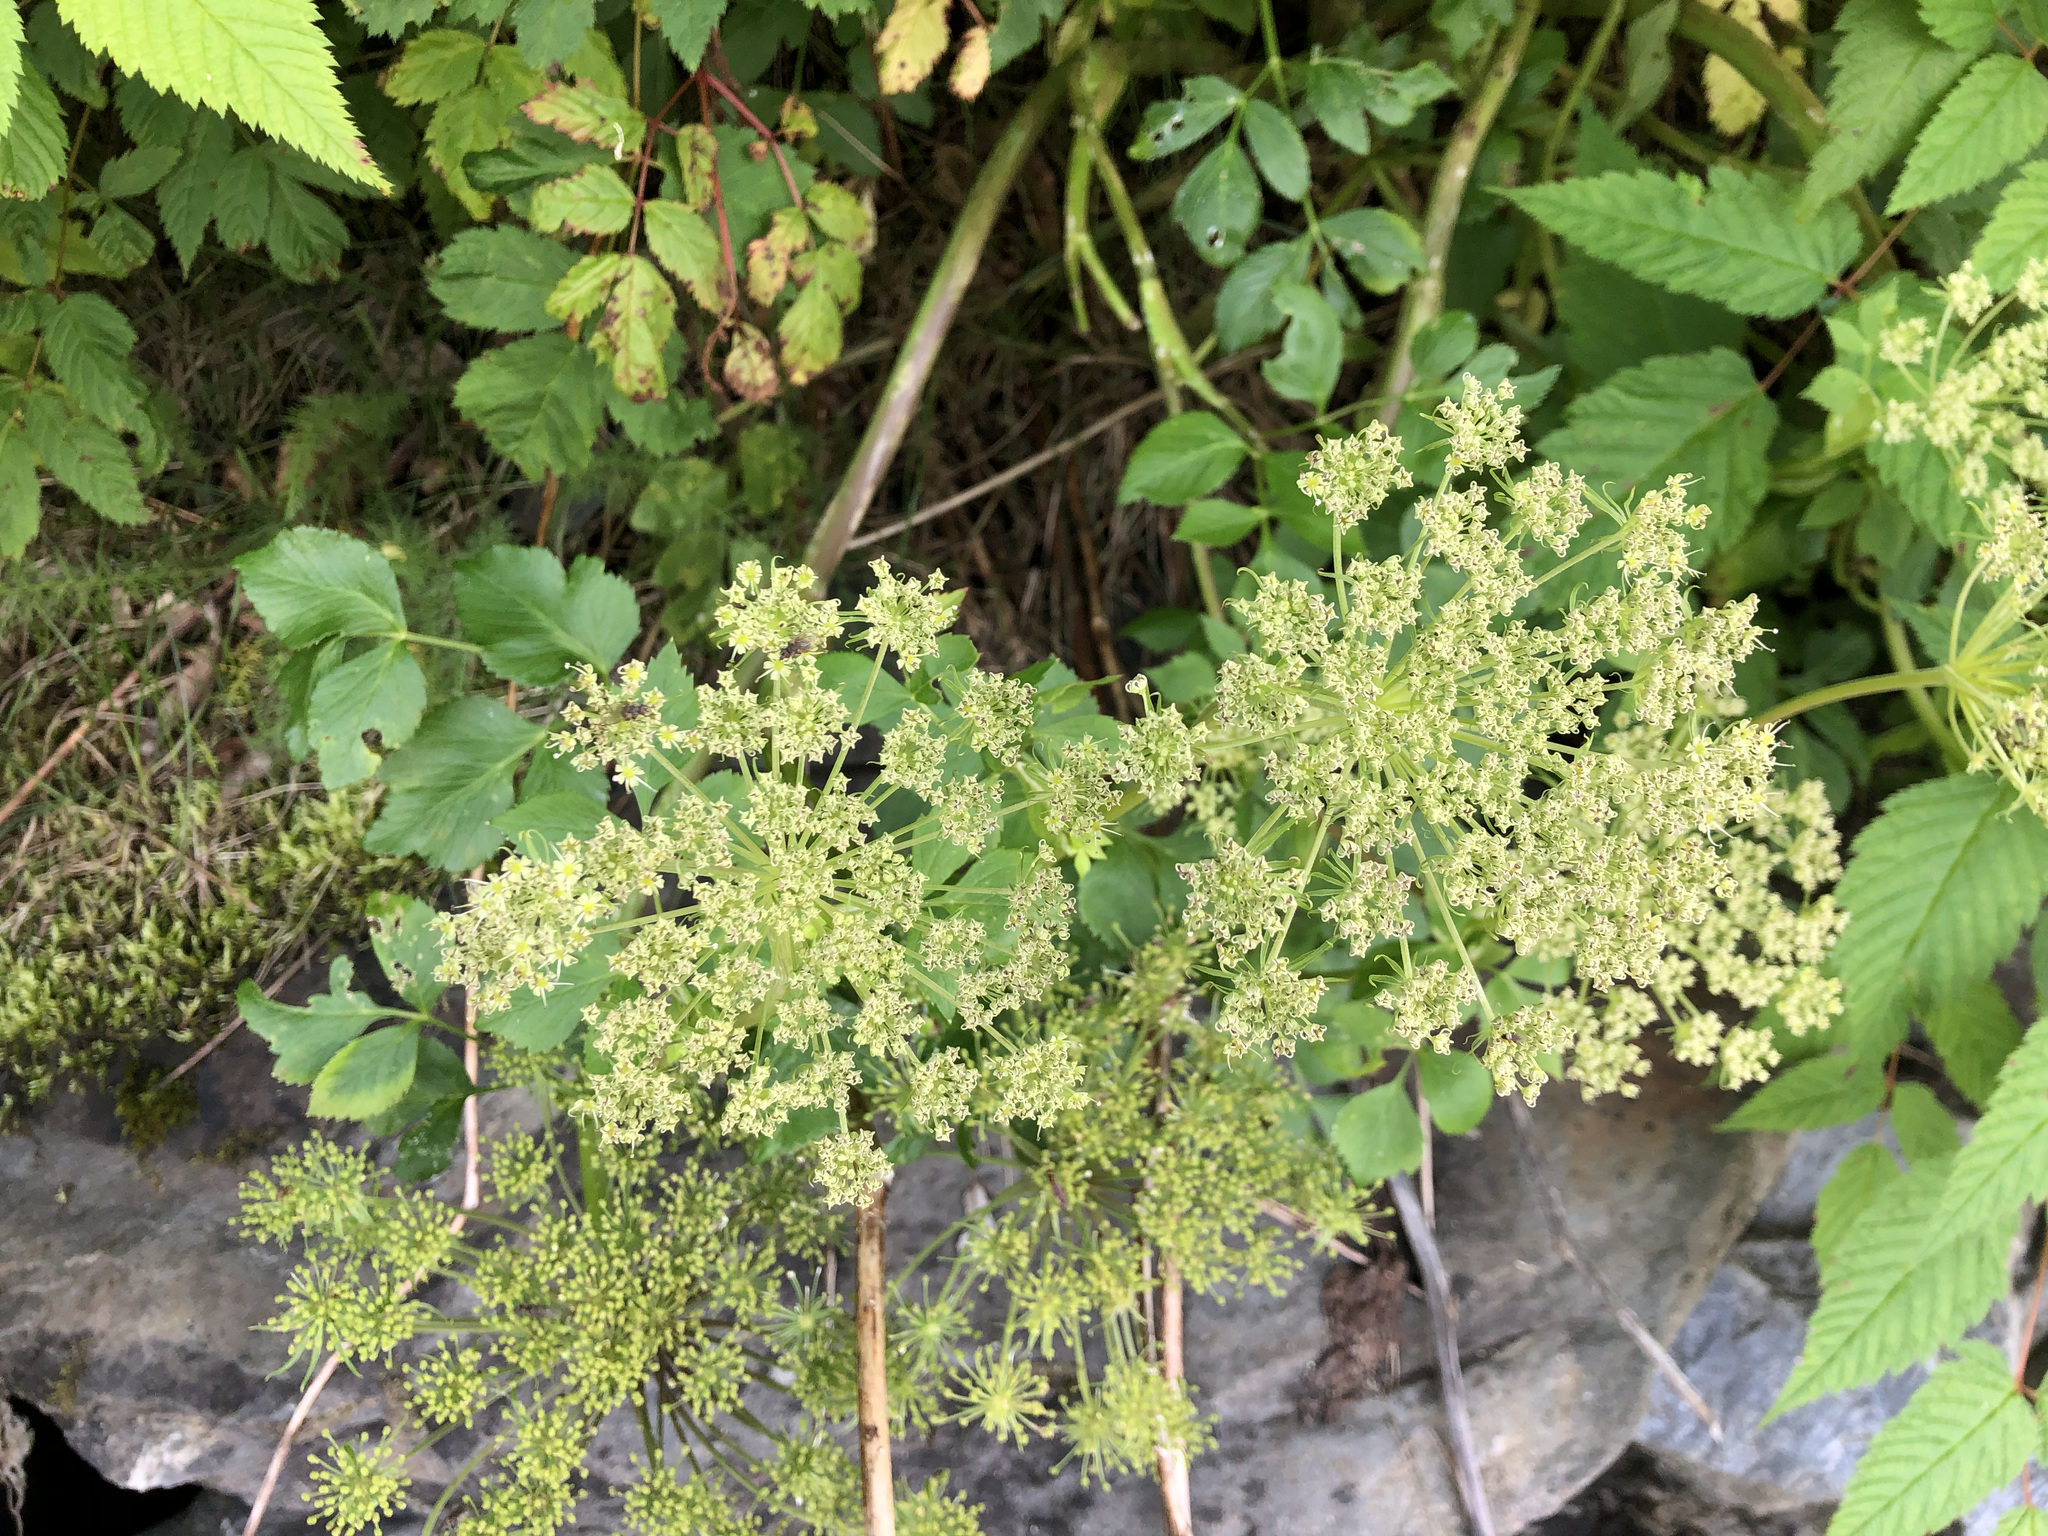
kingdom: Plantae
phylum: Tracheophyta
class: Magnoliopsida
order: Apiales
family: Apiaceae
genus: Angelica
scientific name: Angelica lucida
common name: Seabeach angelica
